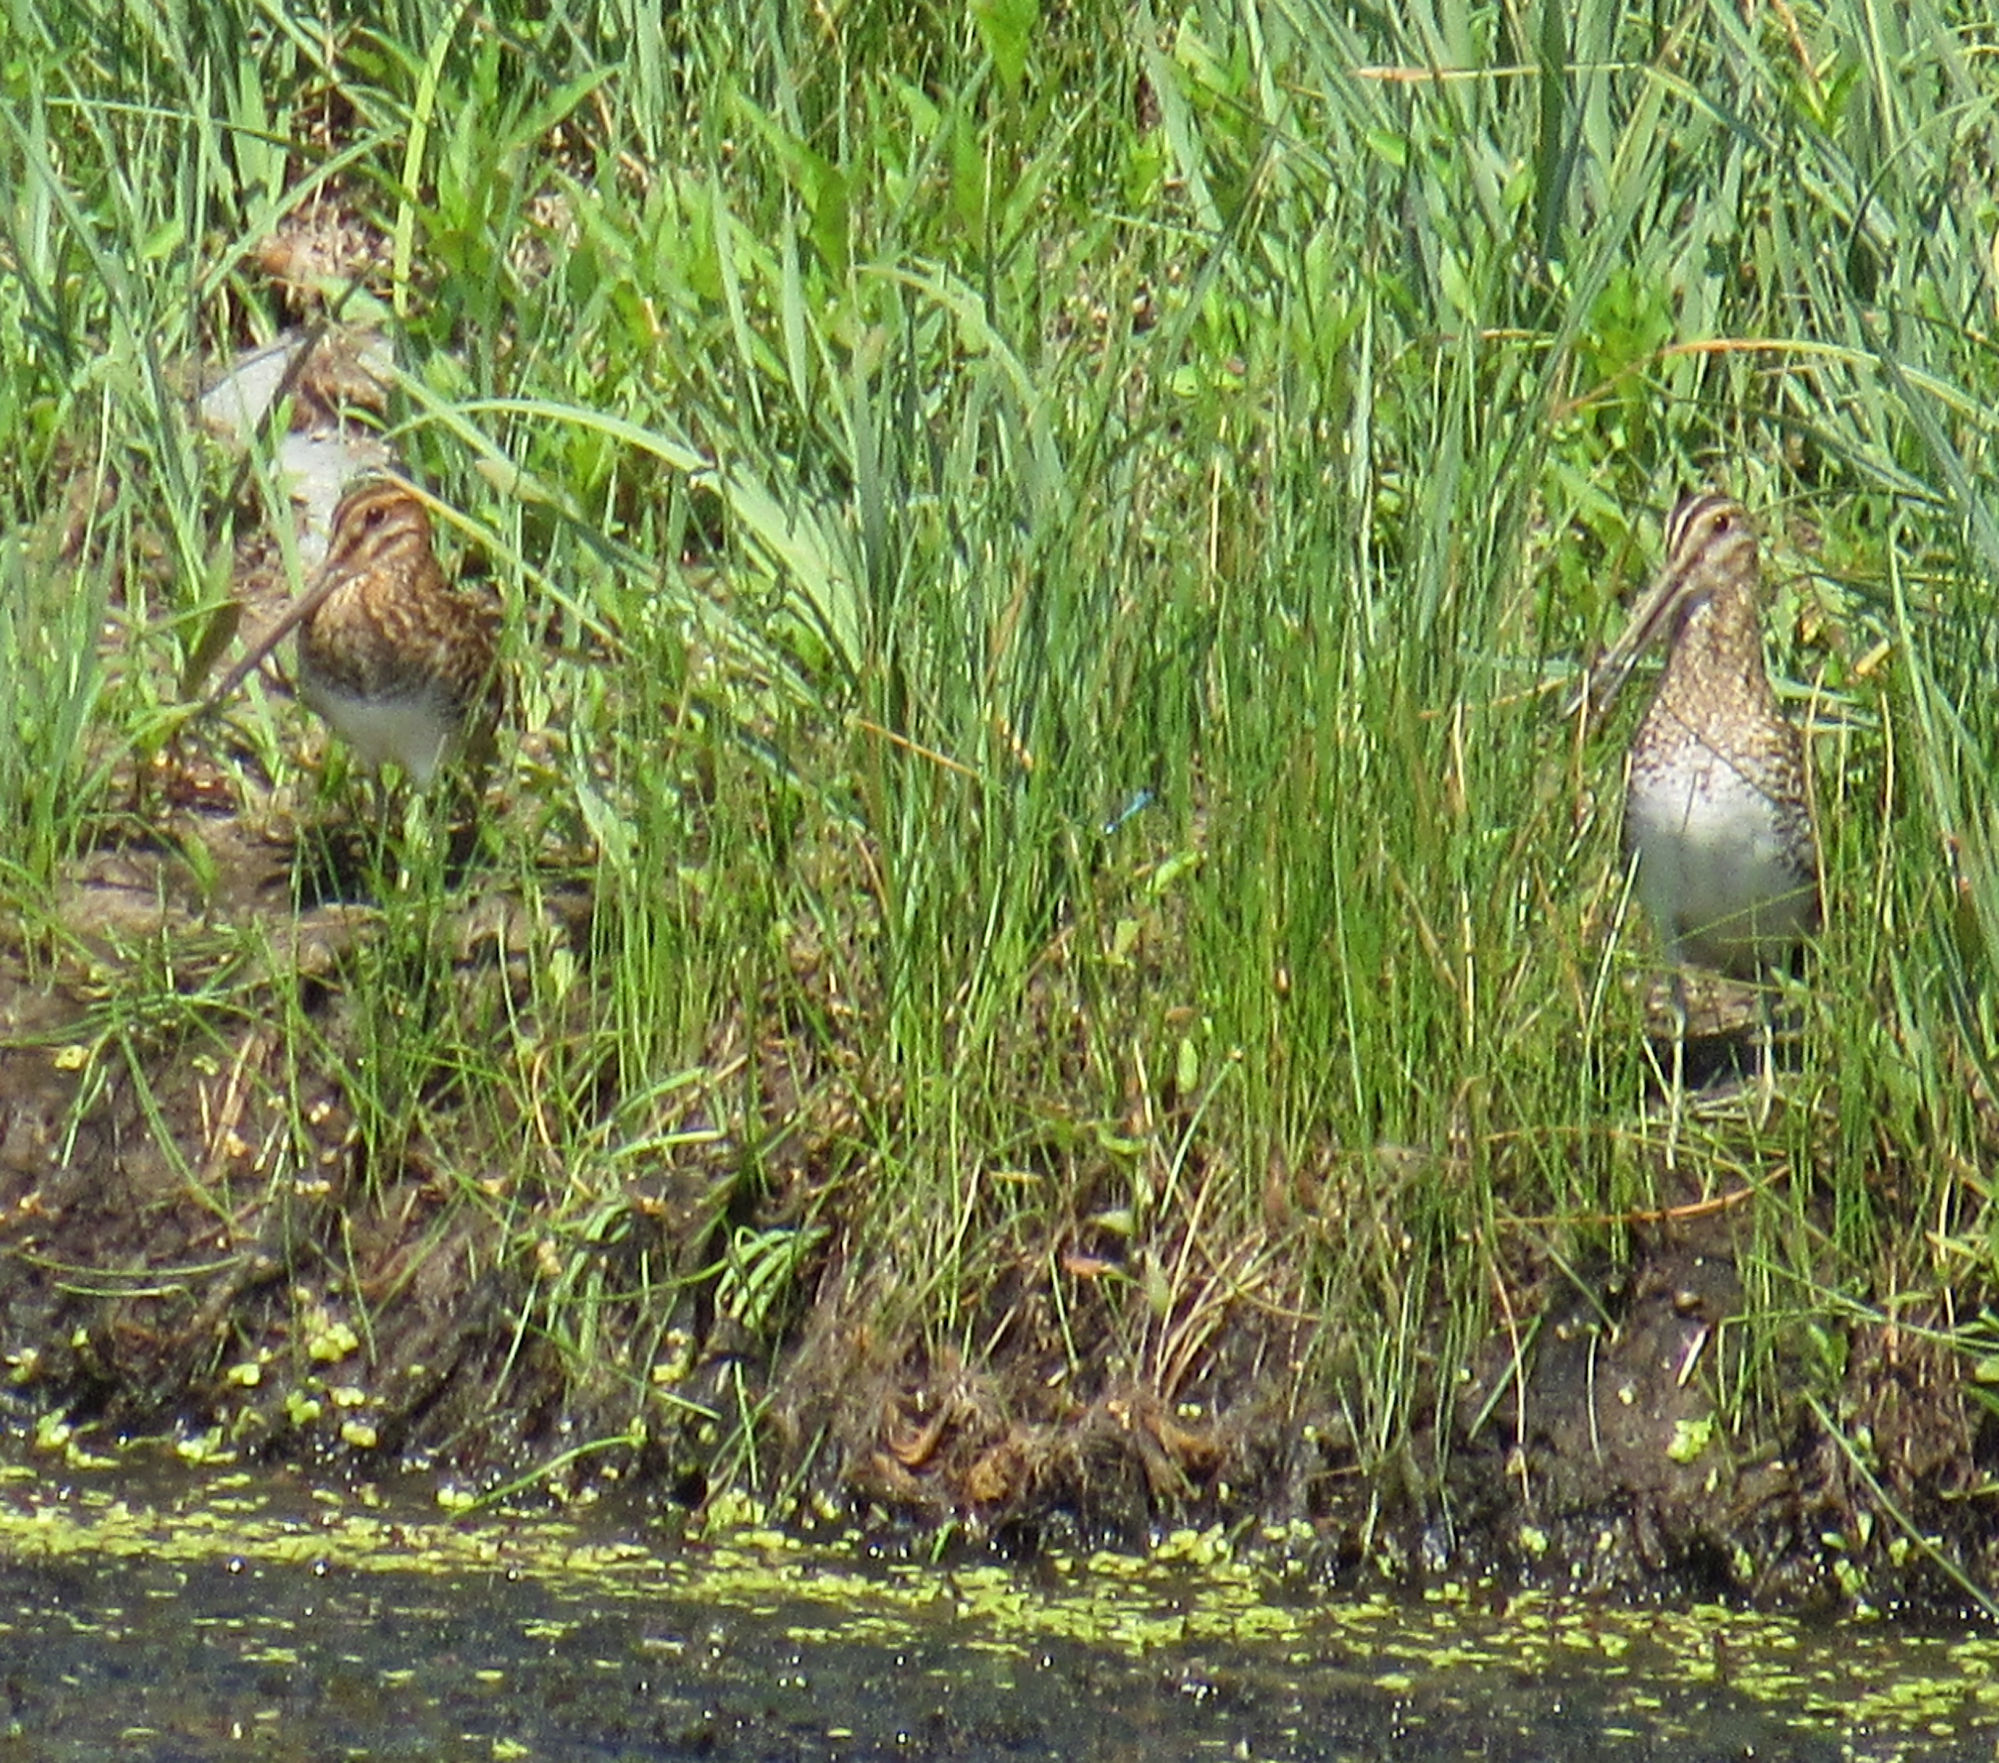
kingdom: Animalia
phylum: Chordata
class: Aves
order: Charadriiformes
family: Scolopacidae
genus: Gallinago
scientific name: Gallinago delicata
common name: Wilson's snipe
